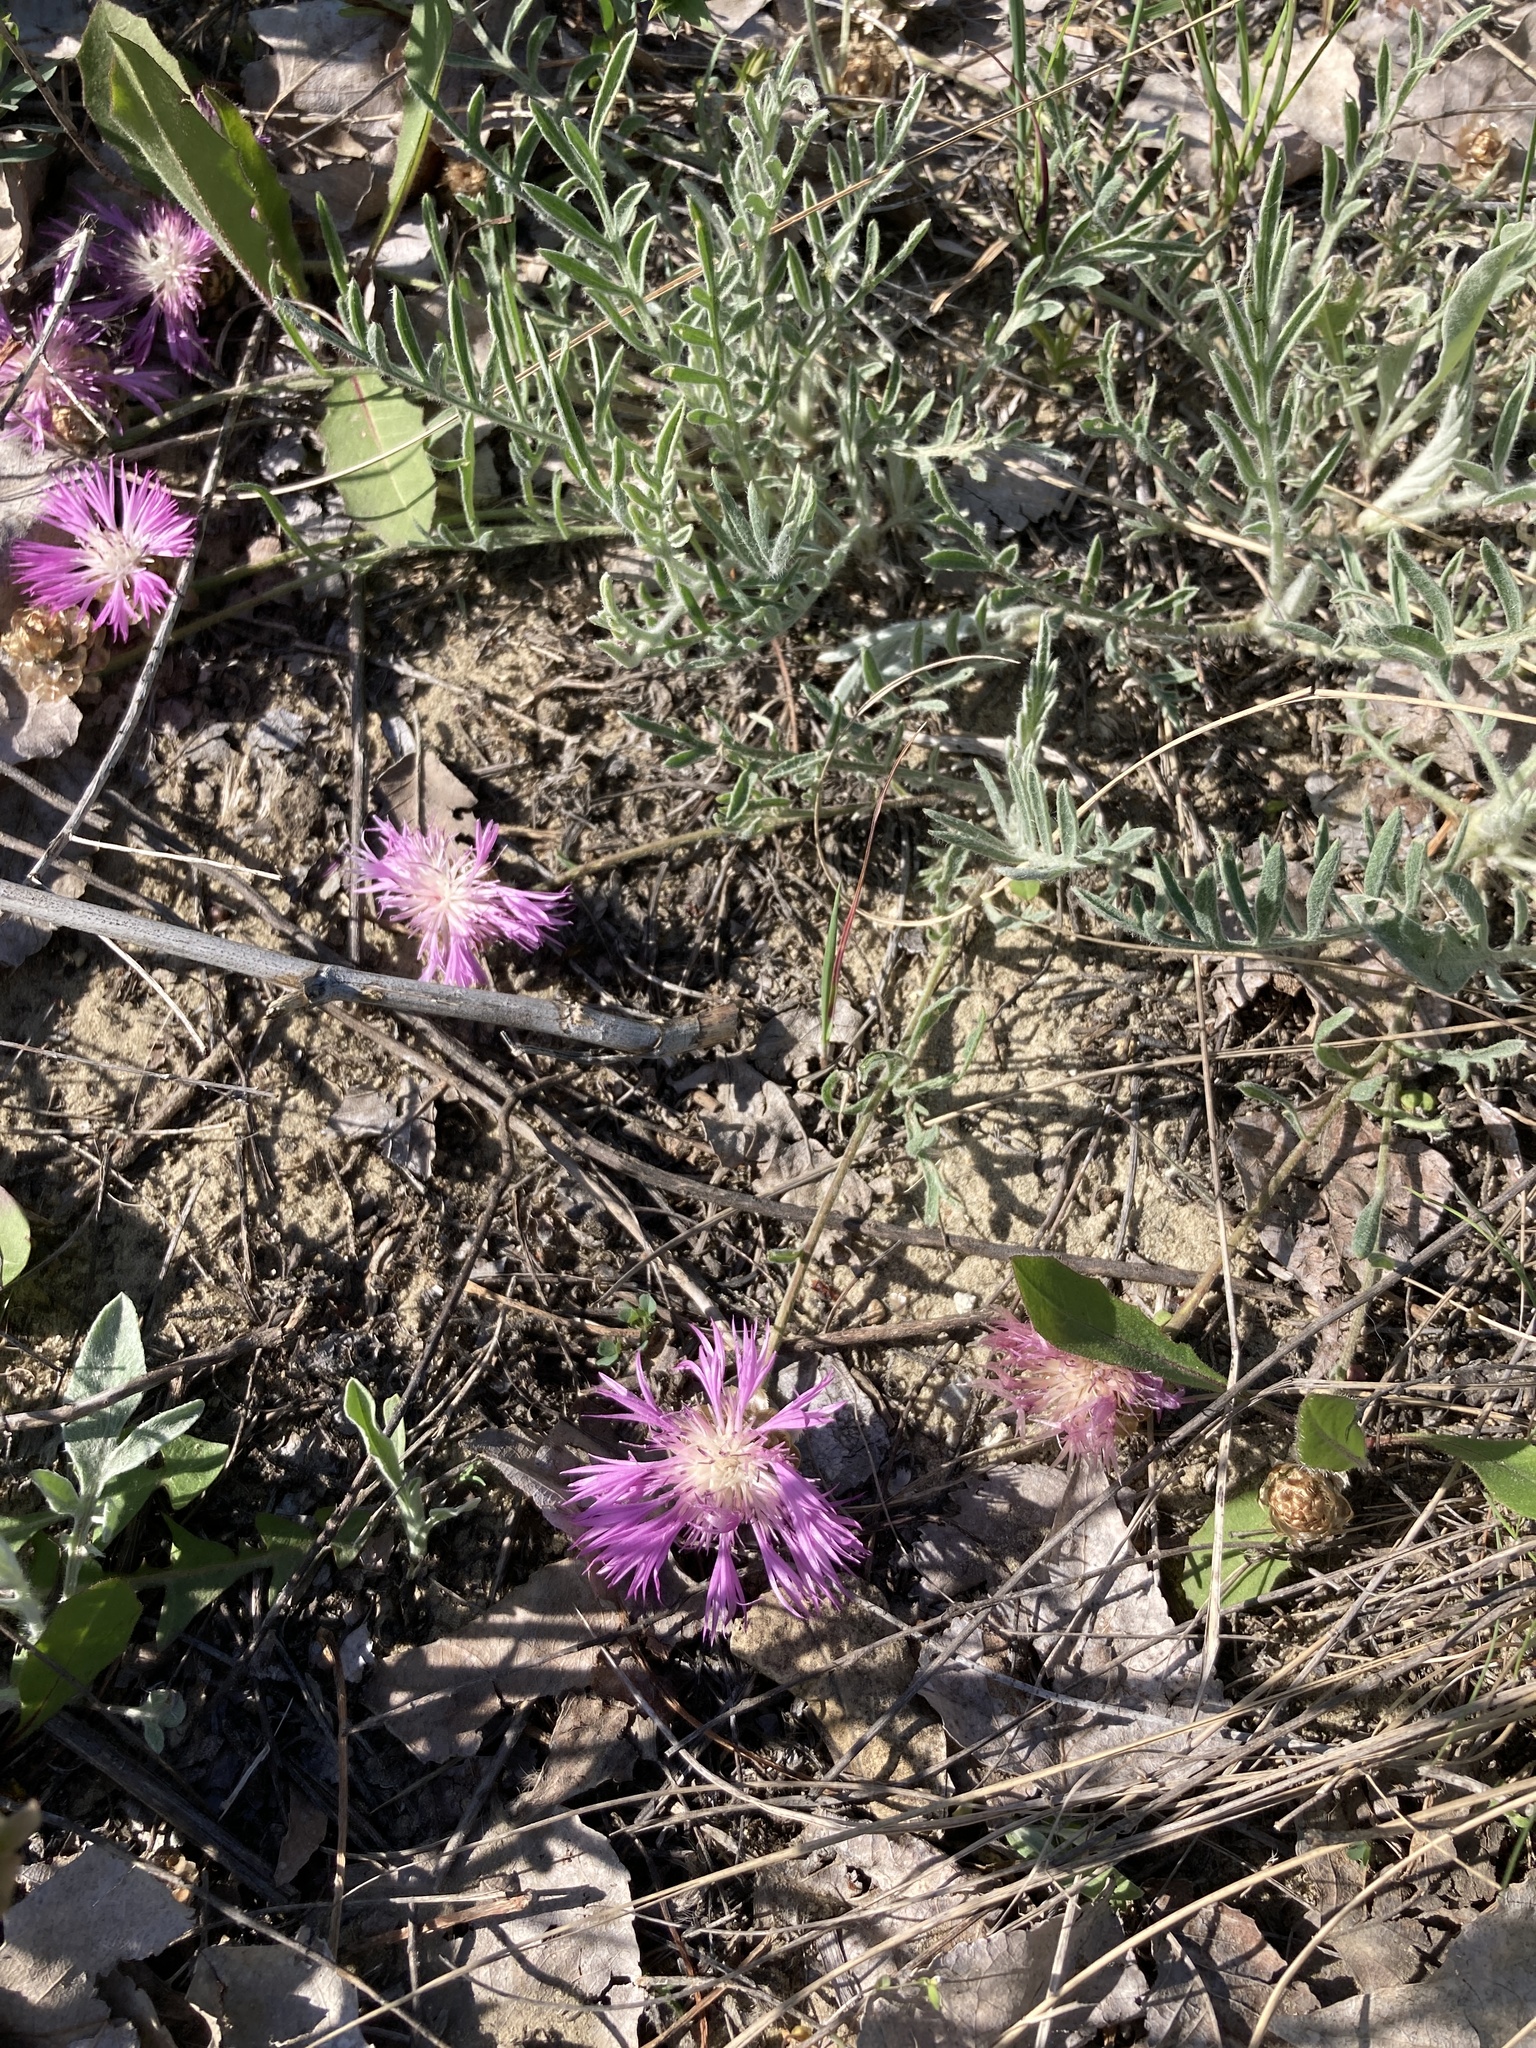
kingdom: Plantae
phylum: Tracheophyta
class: Magnoliopsida
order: Asterales
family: Asteraceae
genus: Psephellus
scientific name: Psephellus marschallianus
